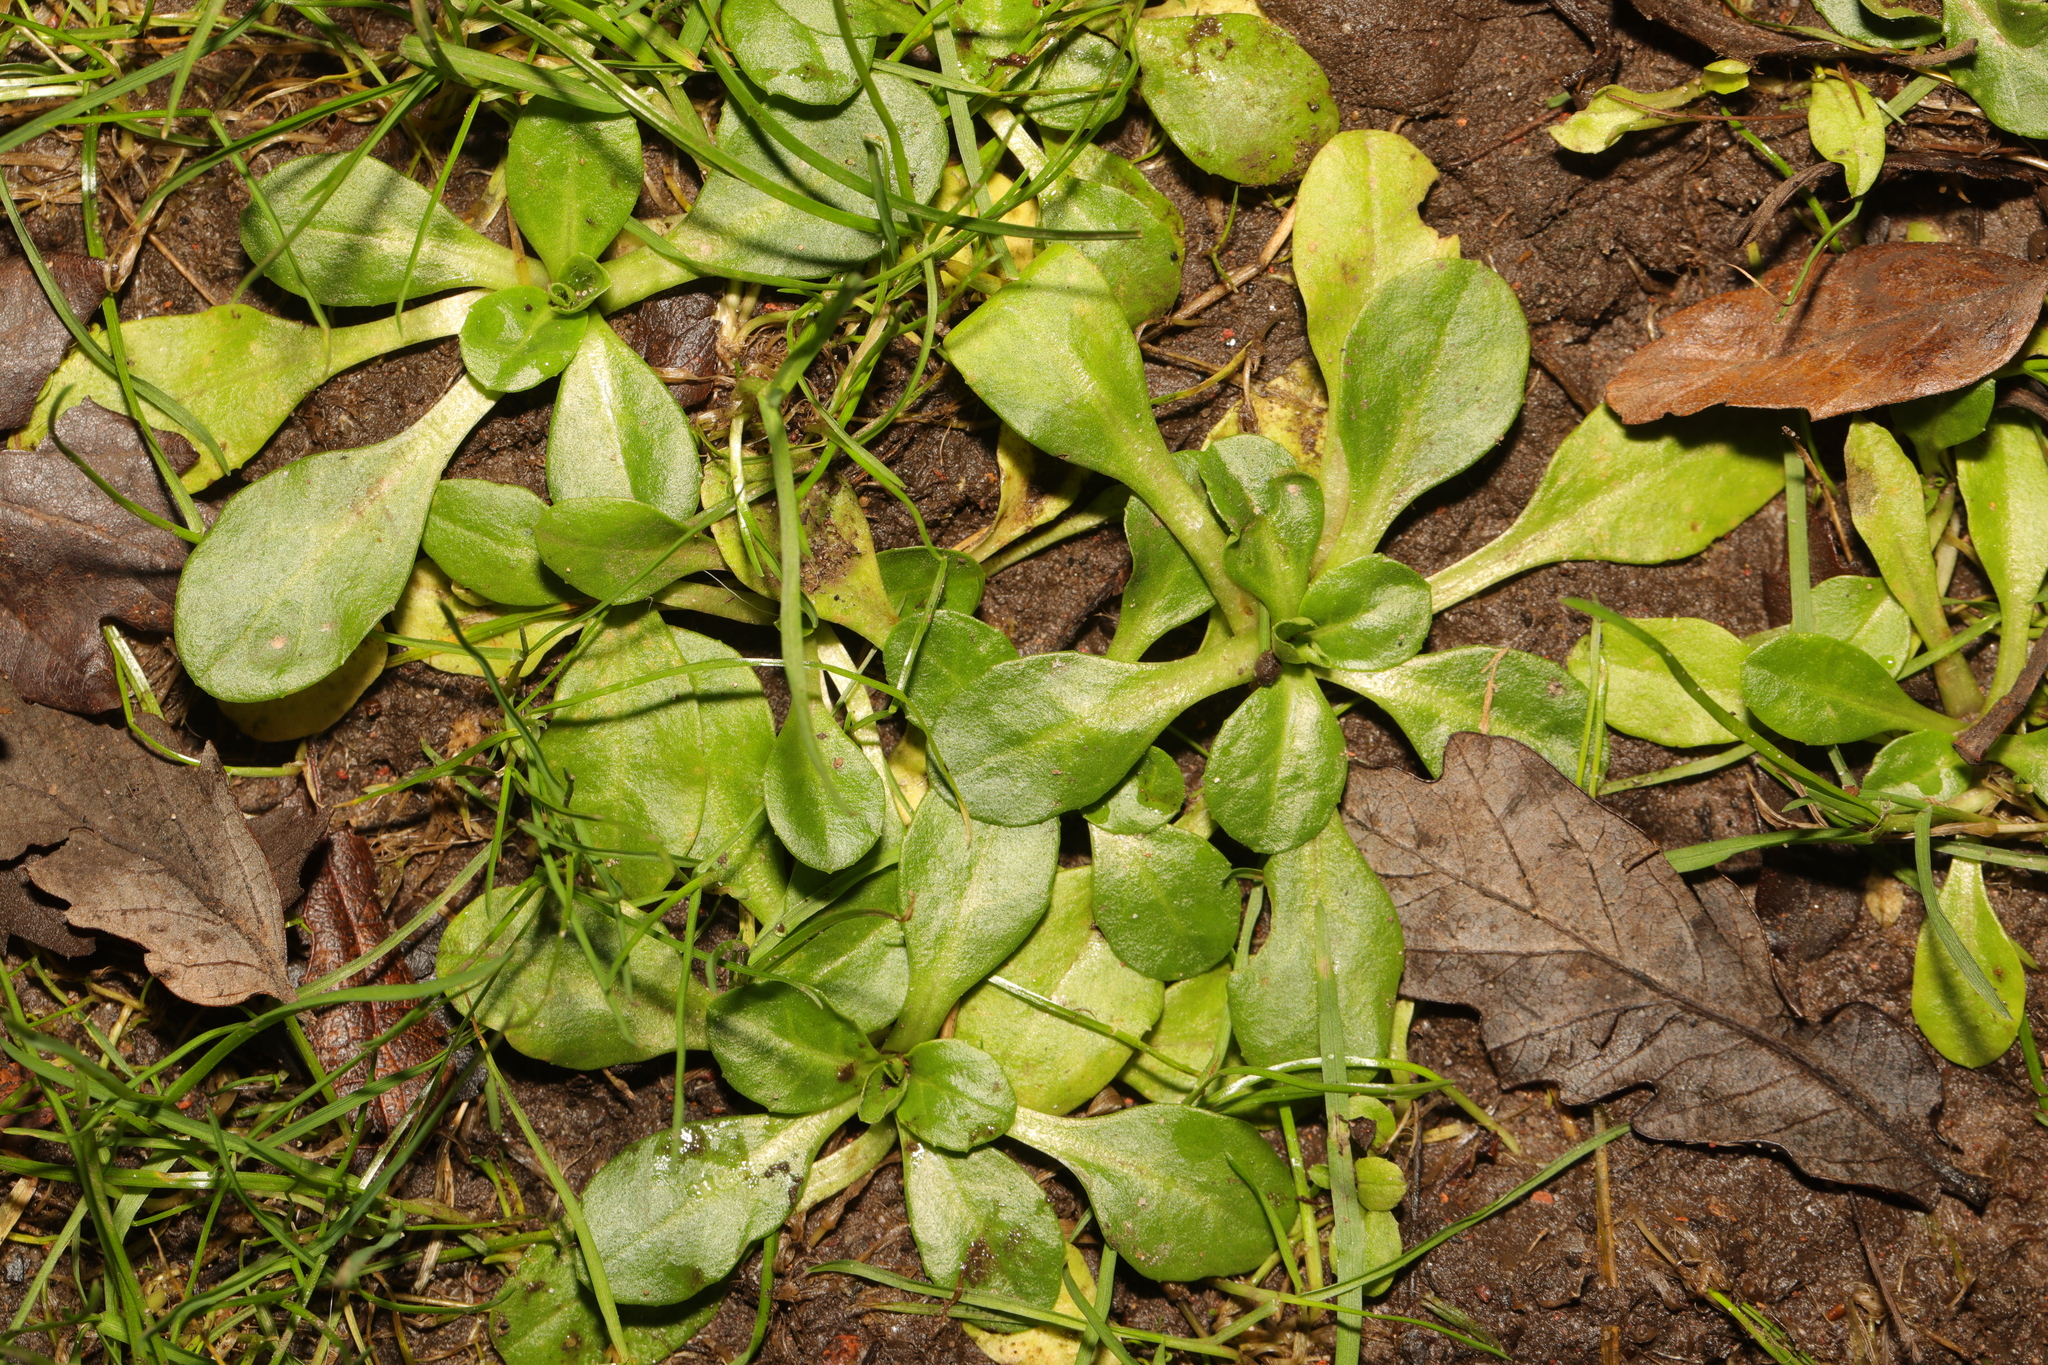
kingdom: Plantae
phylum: Tracheophyta
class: Magnoliopsida
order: Asterales
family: Asteraceae
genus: Bellis
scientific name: Bellis perennis
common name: Lawndaisy
